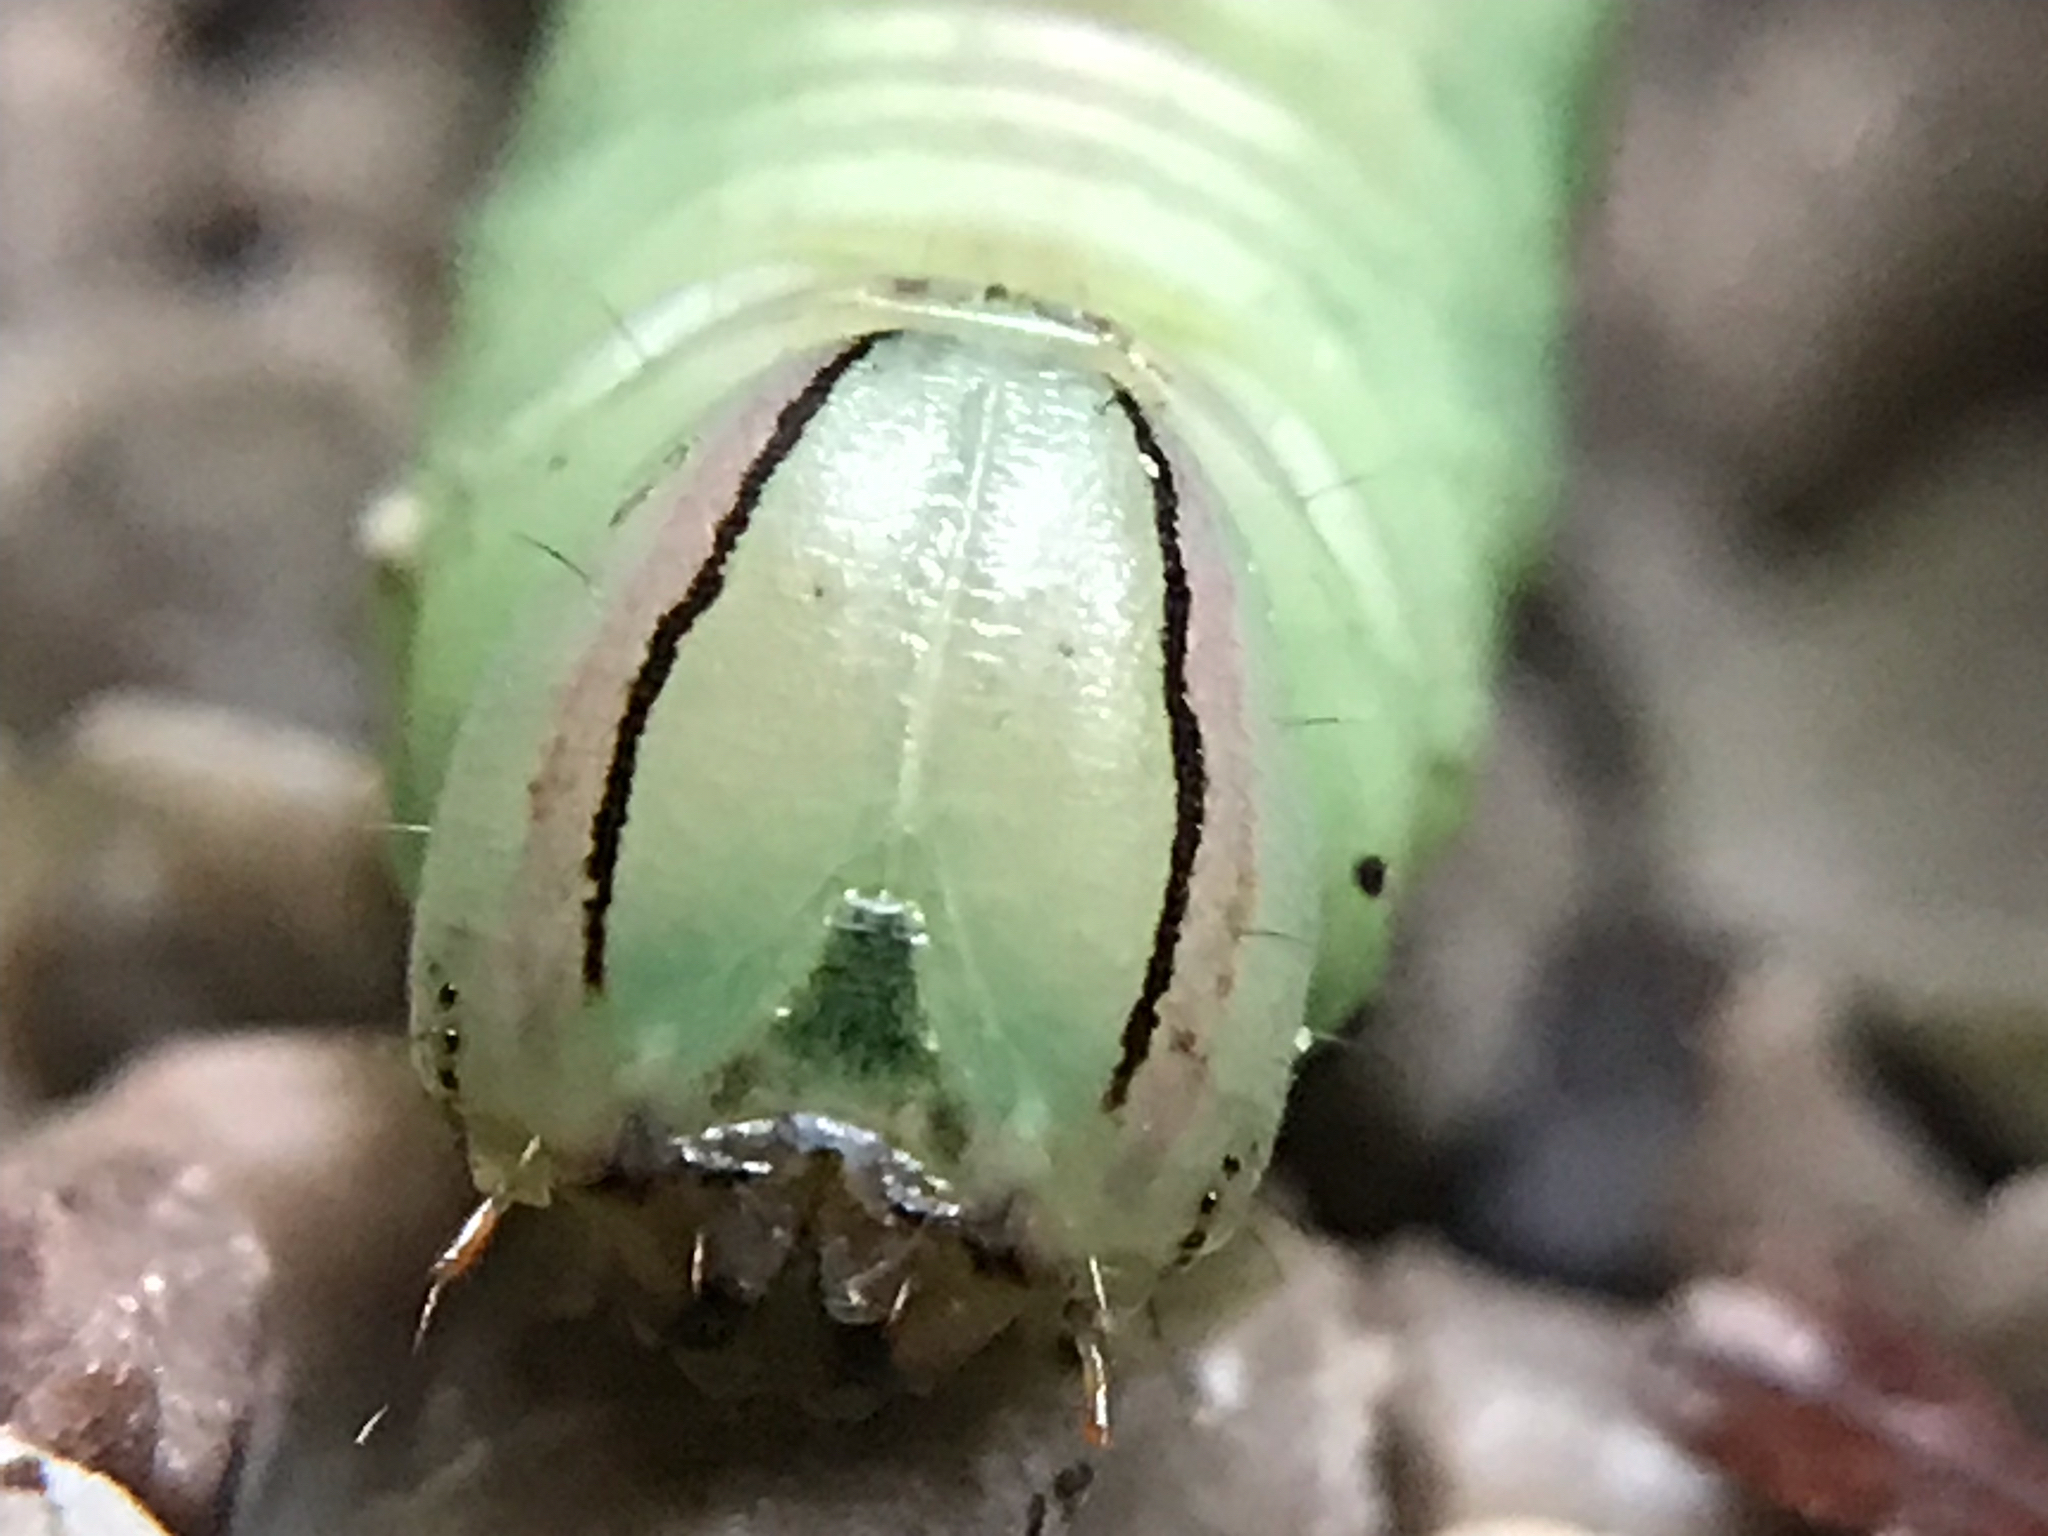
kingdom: Animalia
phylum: Arthropoda
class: Insecta
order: Lepidoptera
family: Notodontidae
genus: Disphragis
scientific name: Disphragis Cecrita guttivitta
